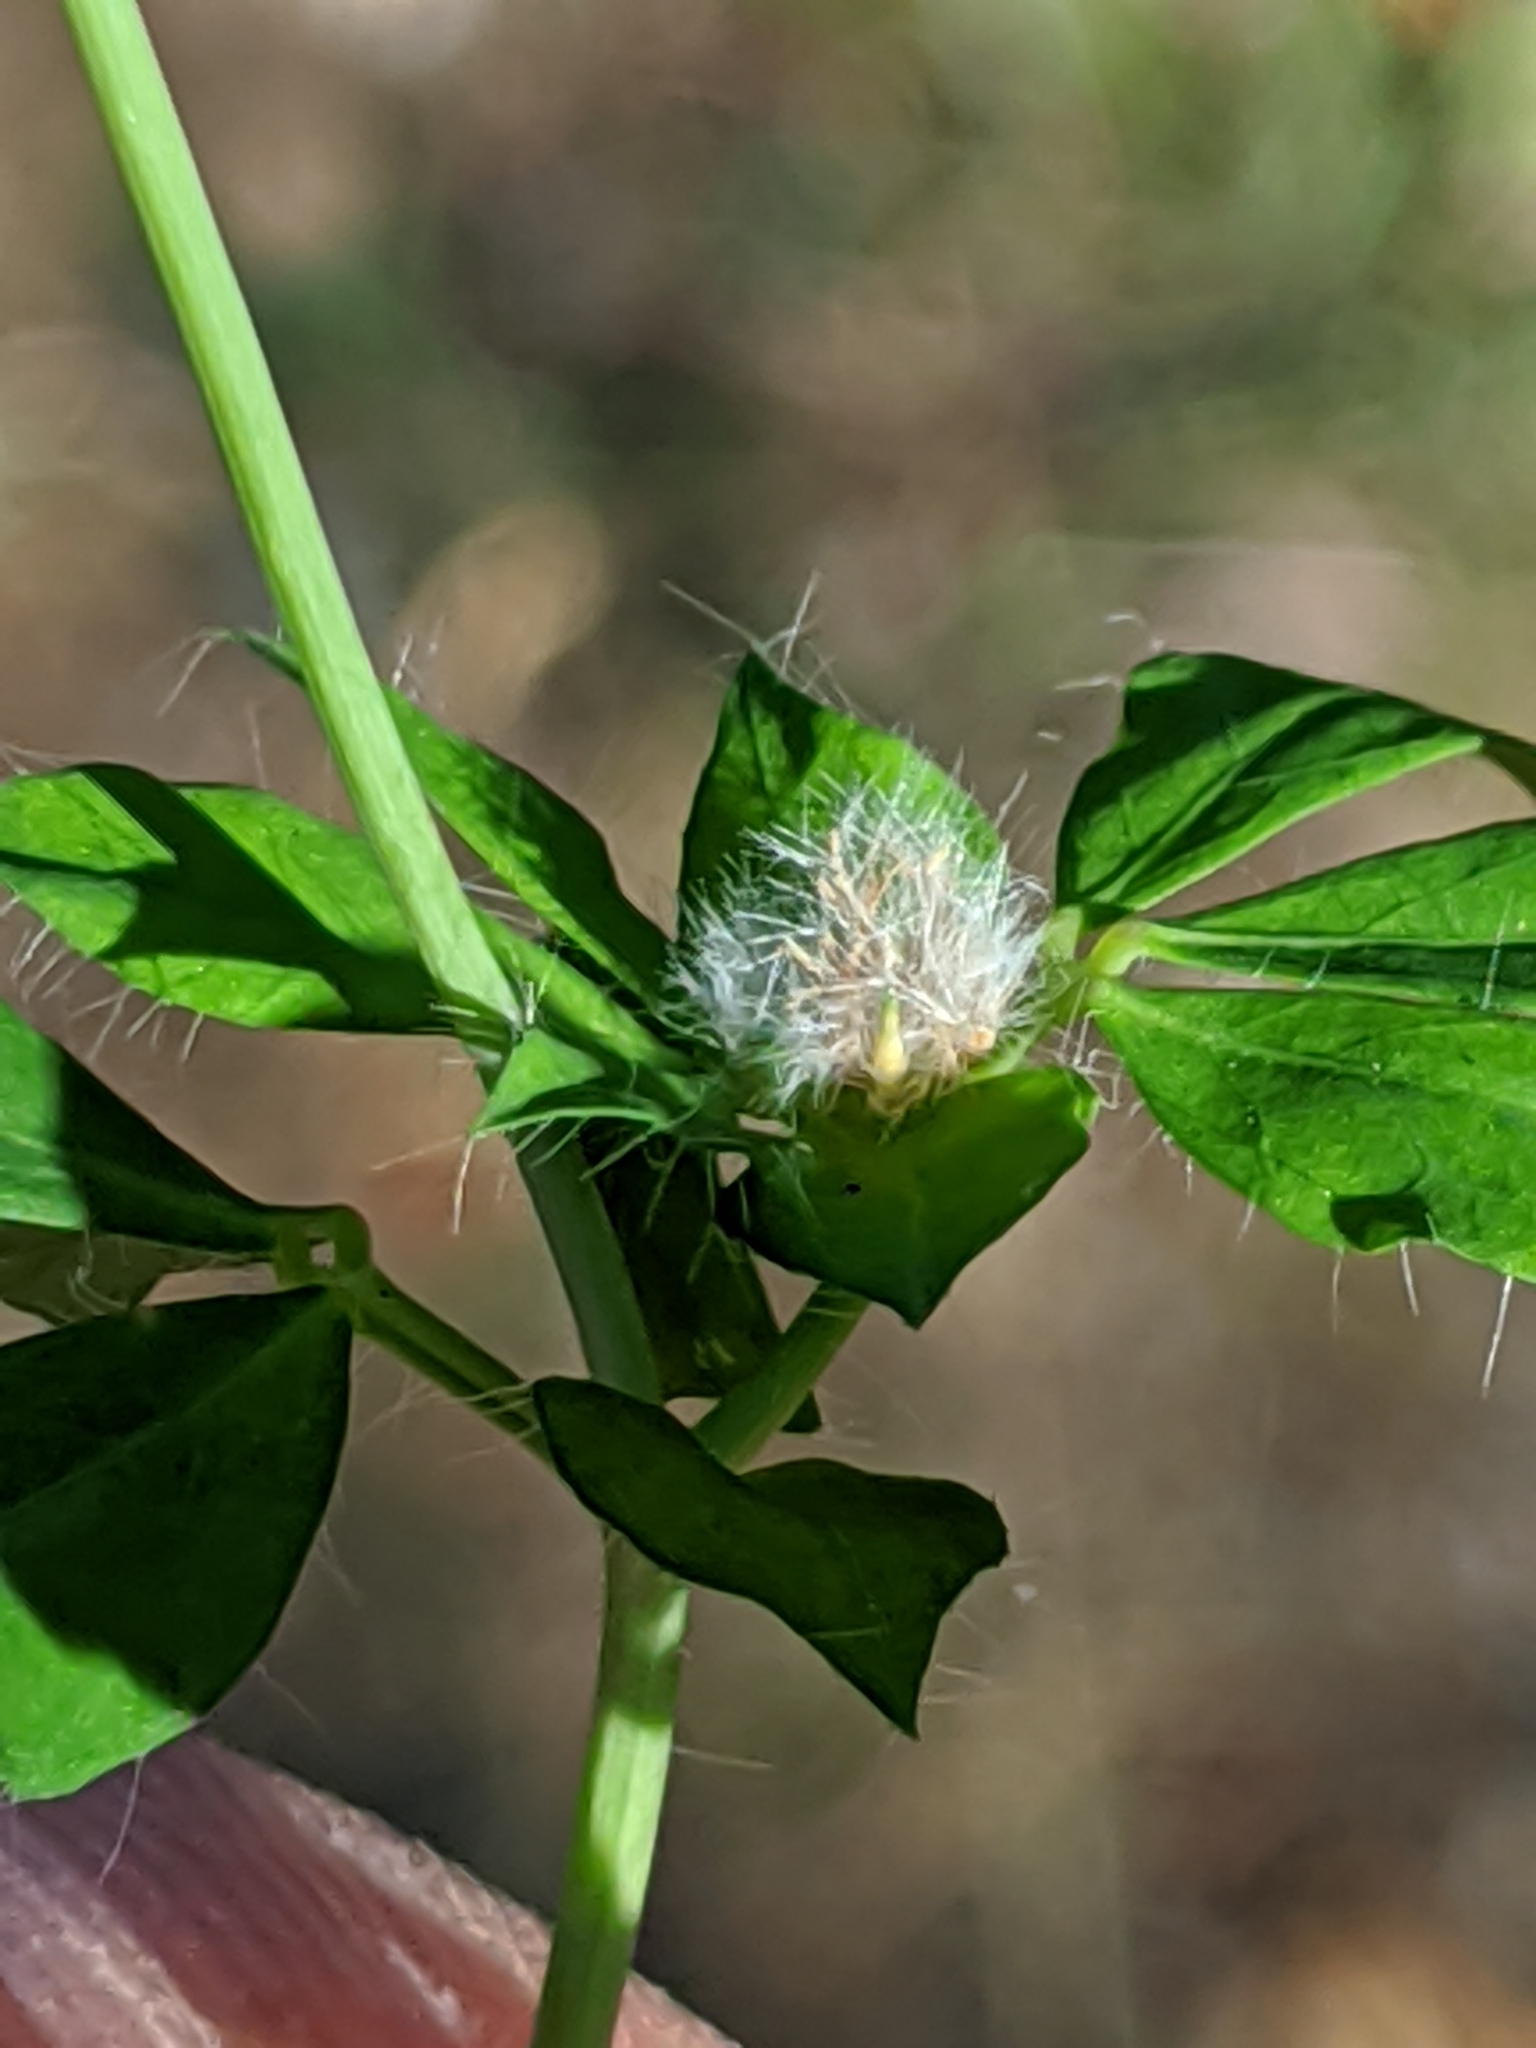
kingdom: Plantae
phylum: Tracheophyta
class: Magnoliopsida
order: Fabales
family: Fabaceae
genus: Lotus
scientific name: Lotus
